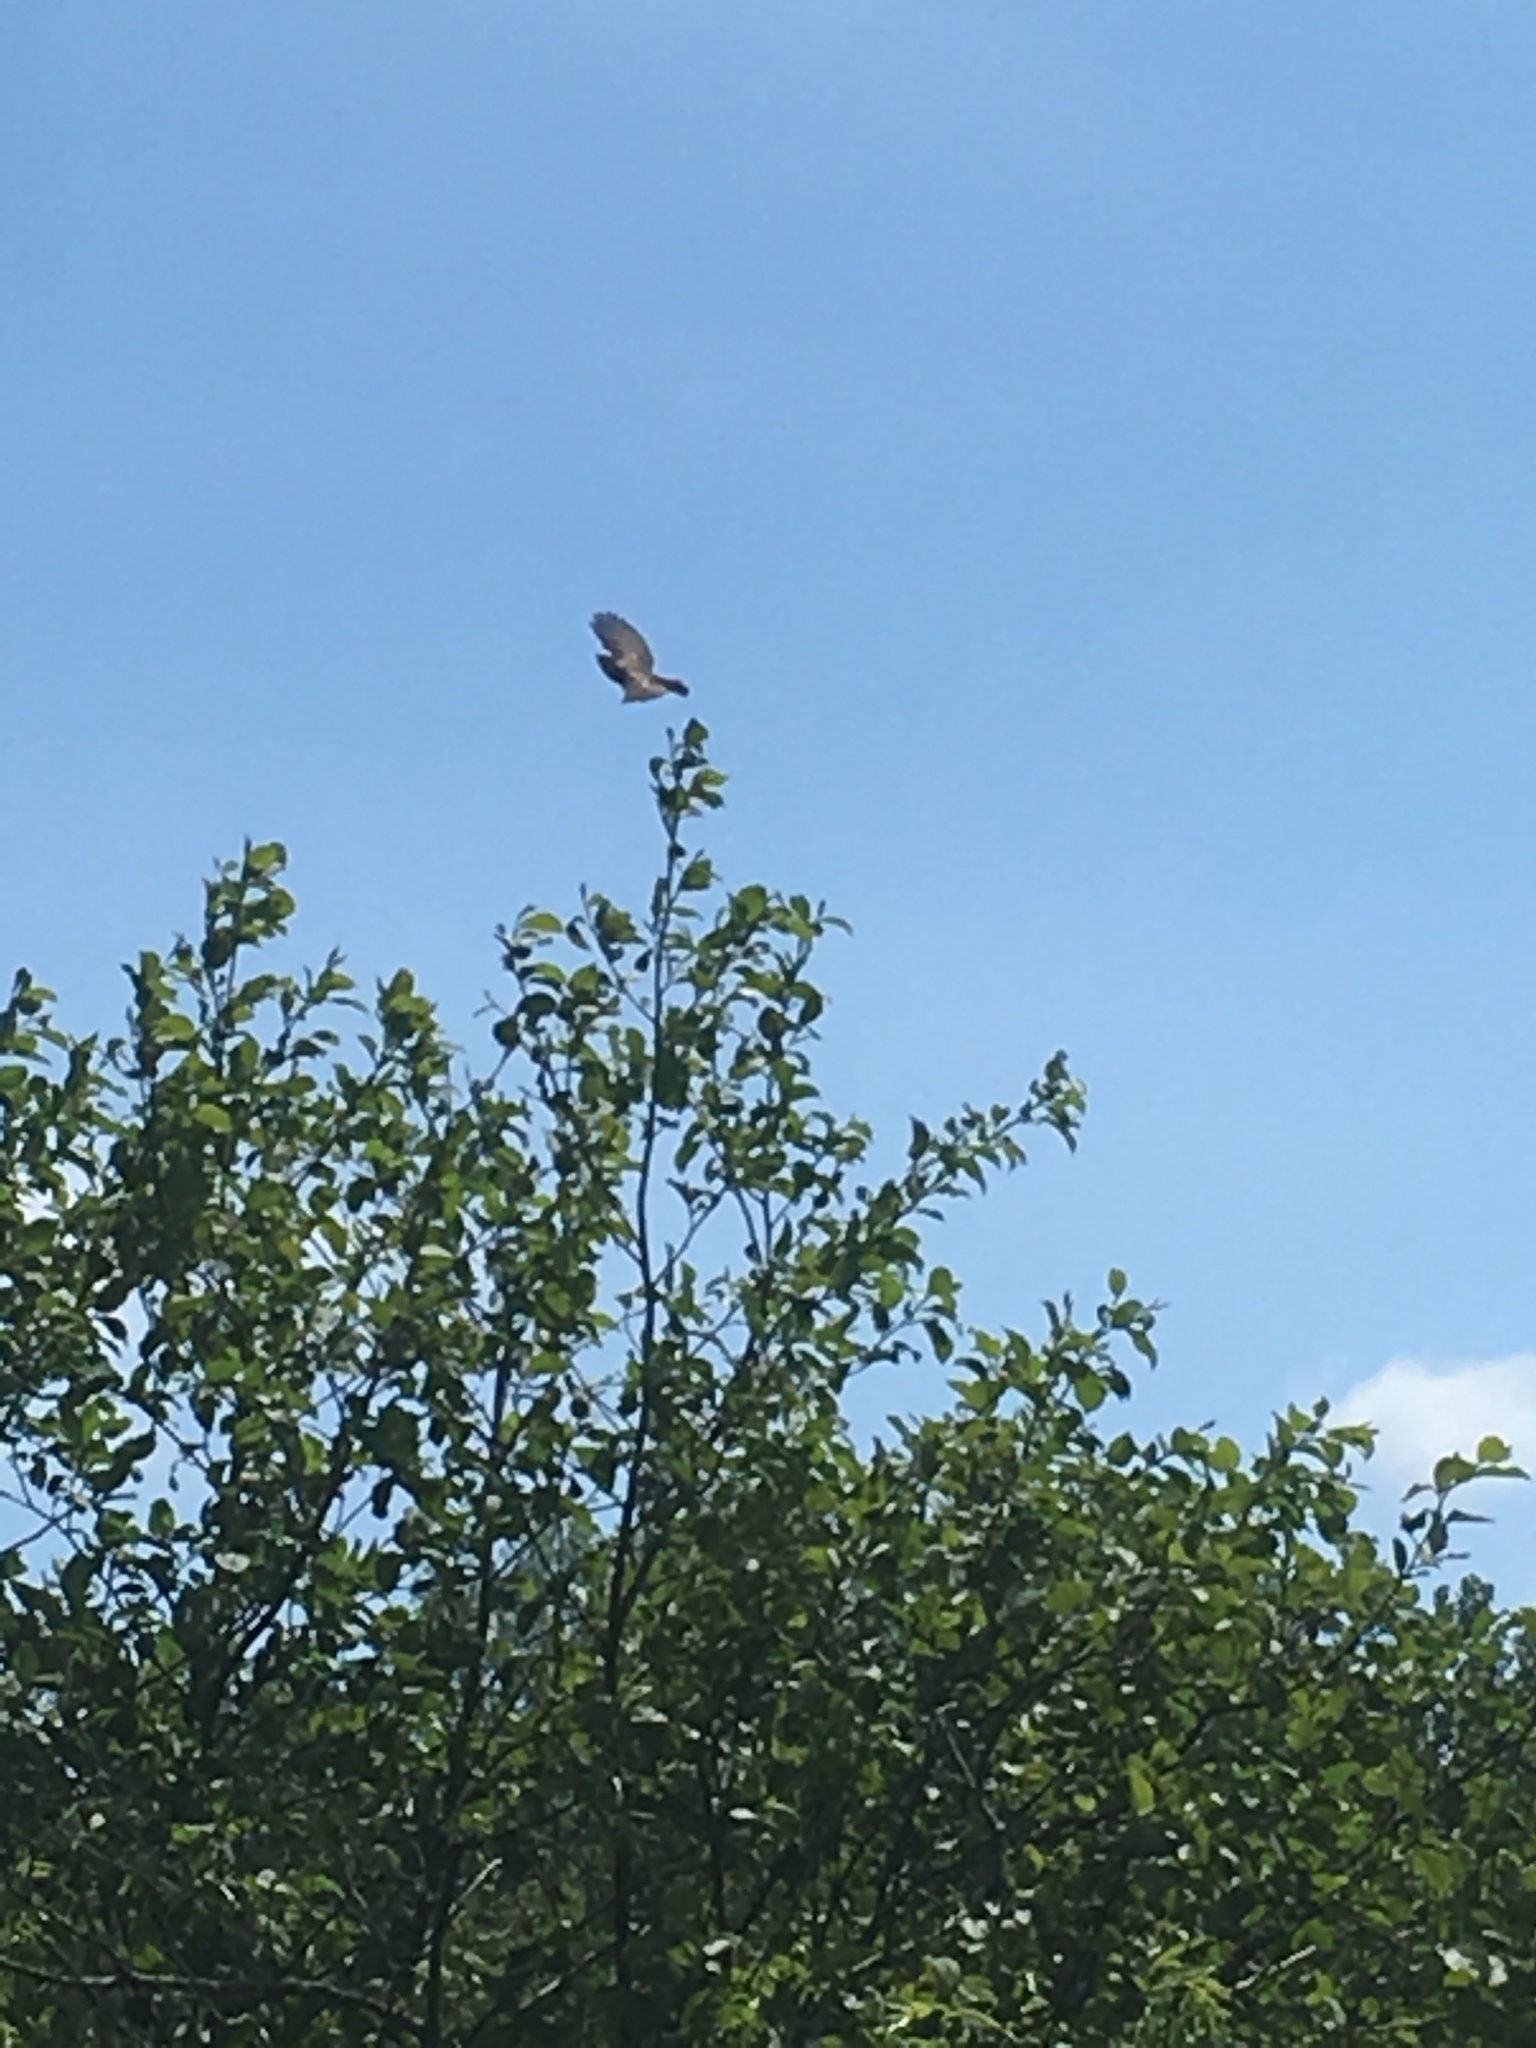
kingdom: Animalia
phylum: Chordata
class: Aves
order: Passeriformes
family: Tyrannidae
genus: Empidonax
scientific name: Empidonax traillii
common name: Willow flycatcher
